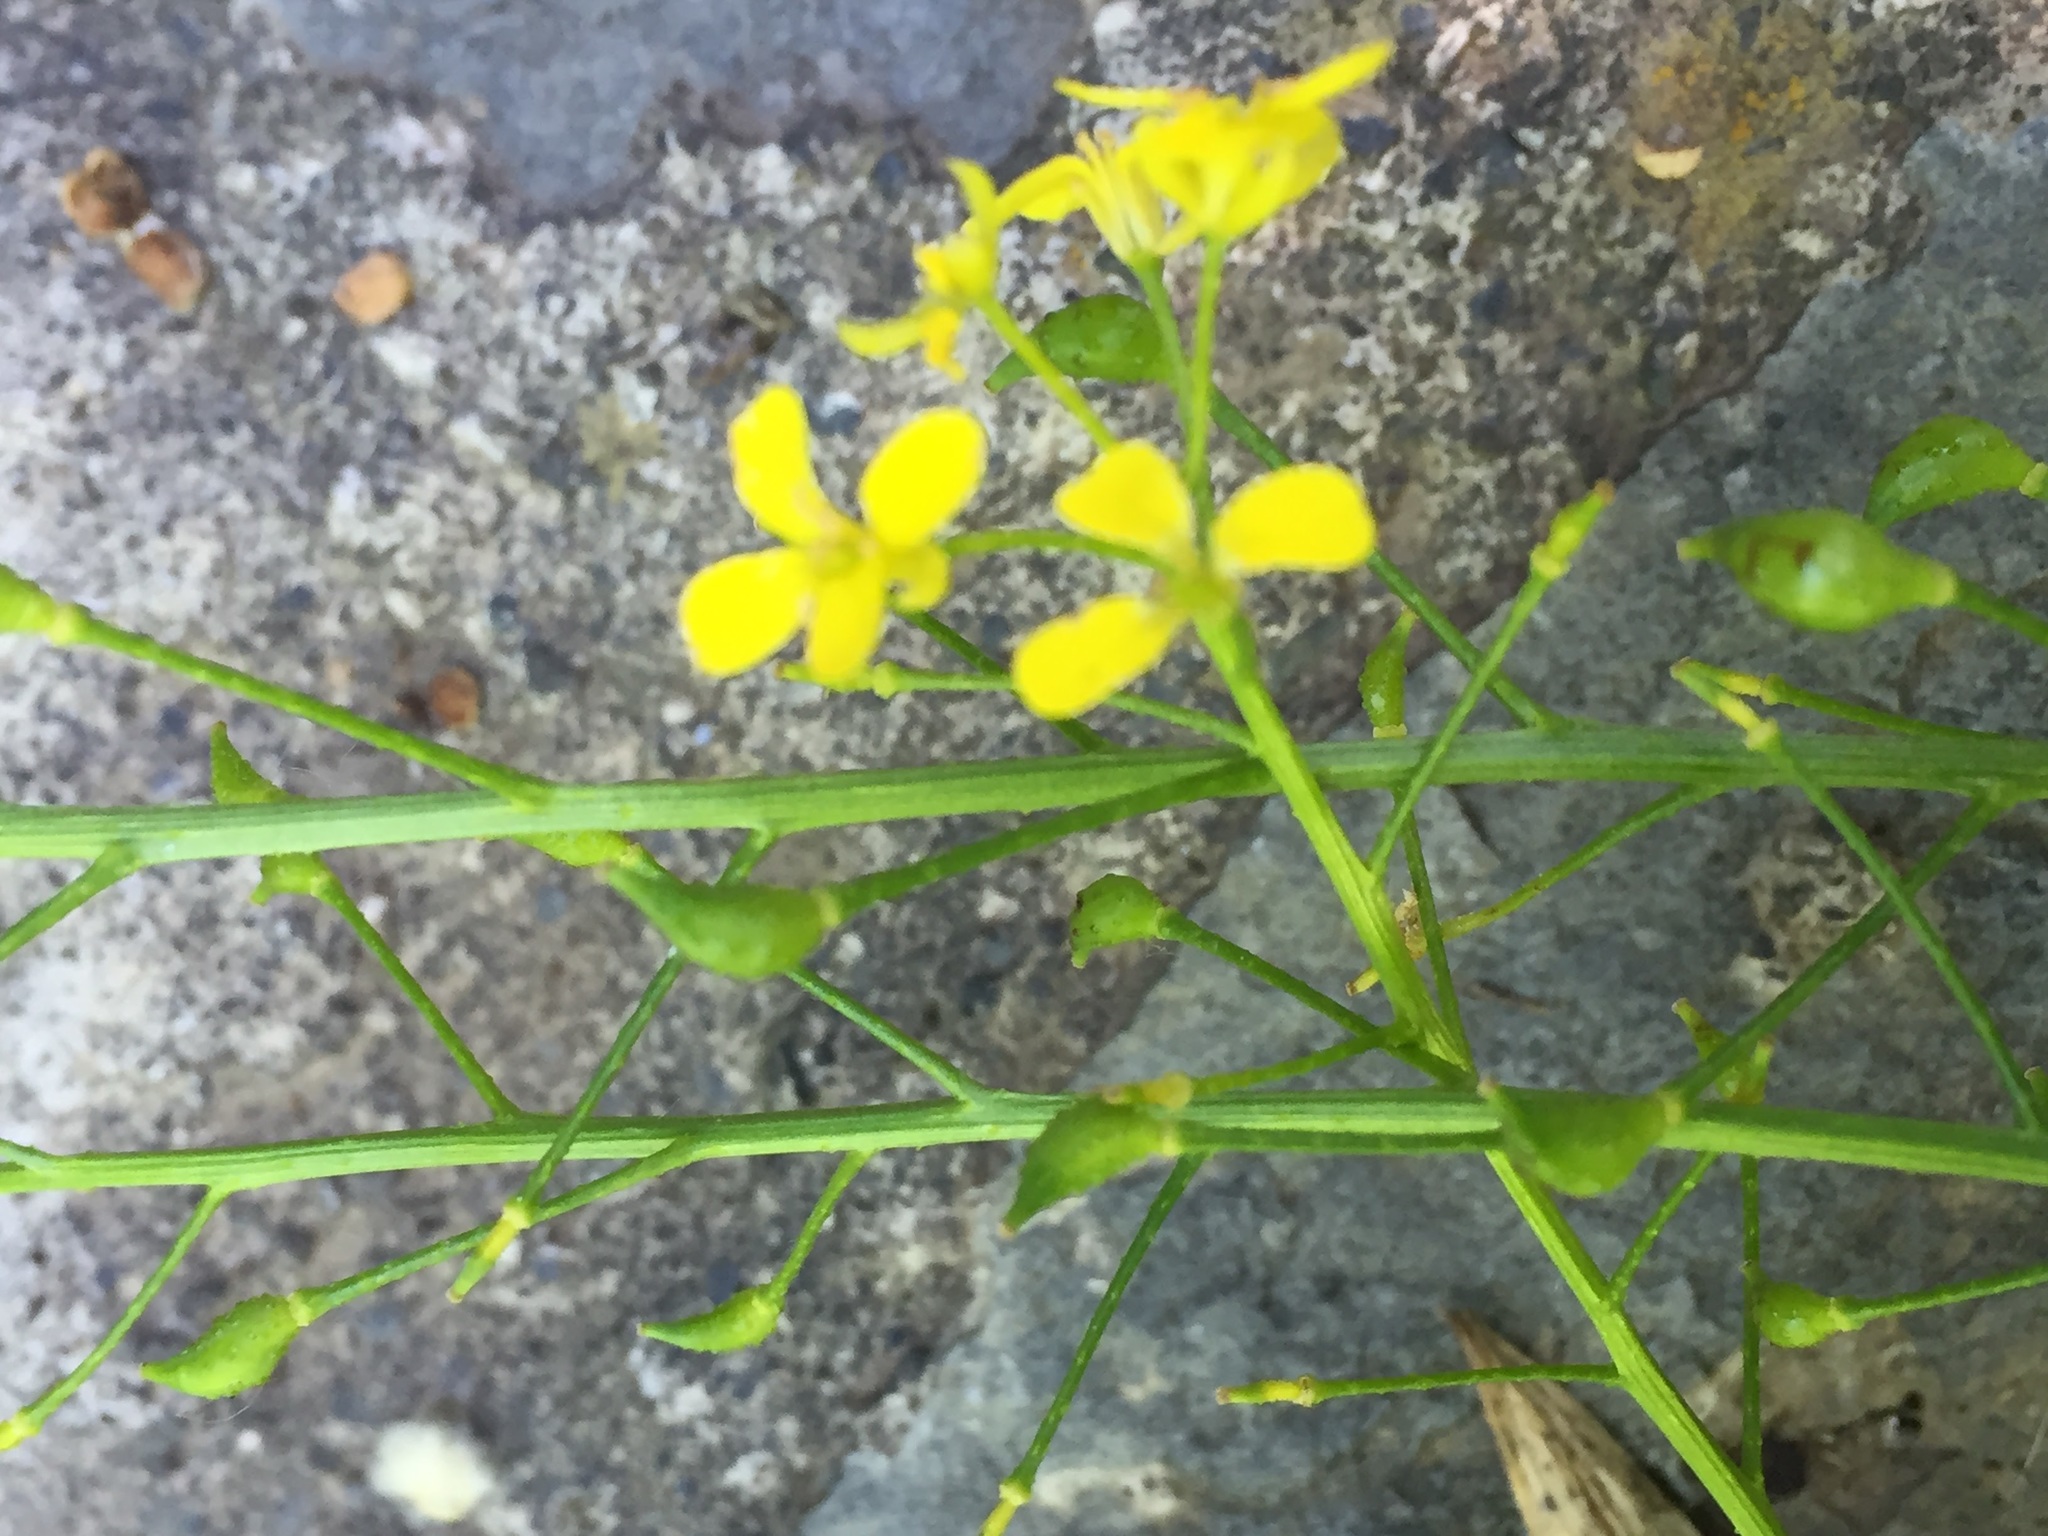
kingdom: Plantae
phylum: Tracheophyta
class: Magnoliopsida
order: Brassicales
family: Brassicaceae
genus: Bunias
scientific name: Bunias orientalis
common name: Warty-cabbage
